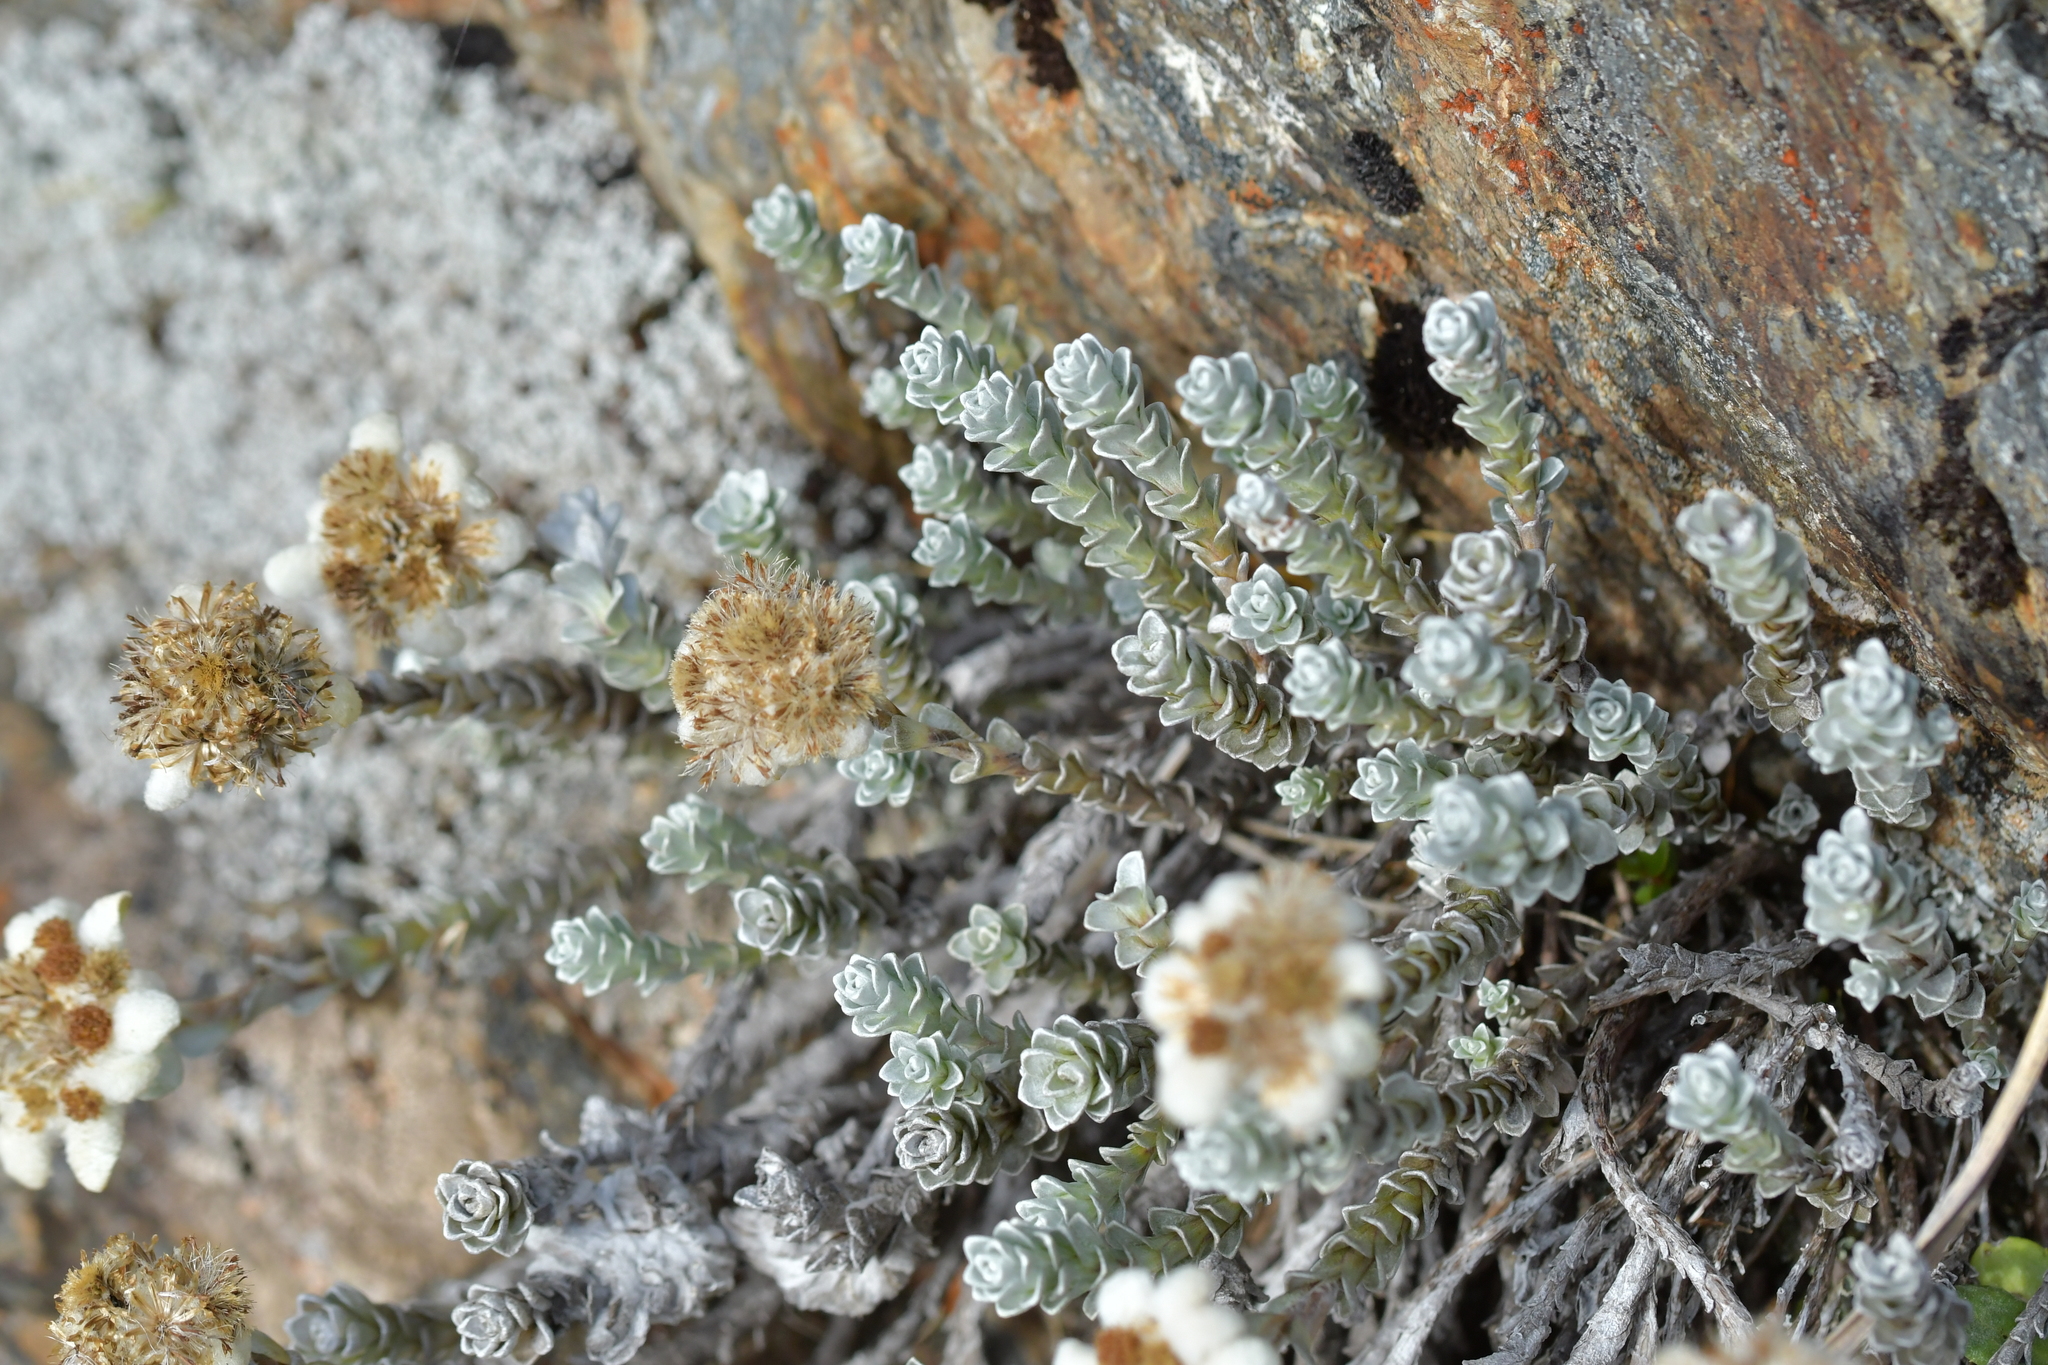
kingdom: Plantae
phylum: Tracheophyta
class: Magnoliopsida
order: Asterales
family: Asteraceae
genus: Leucogenes
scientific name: Leucogenes grandiceps
